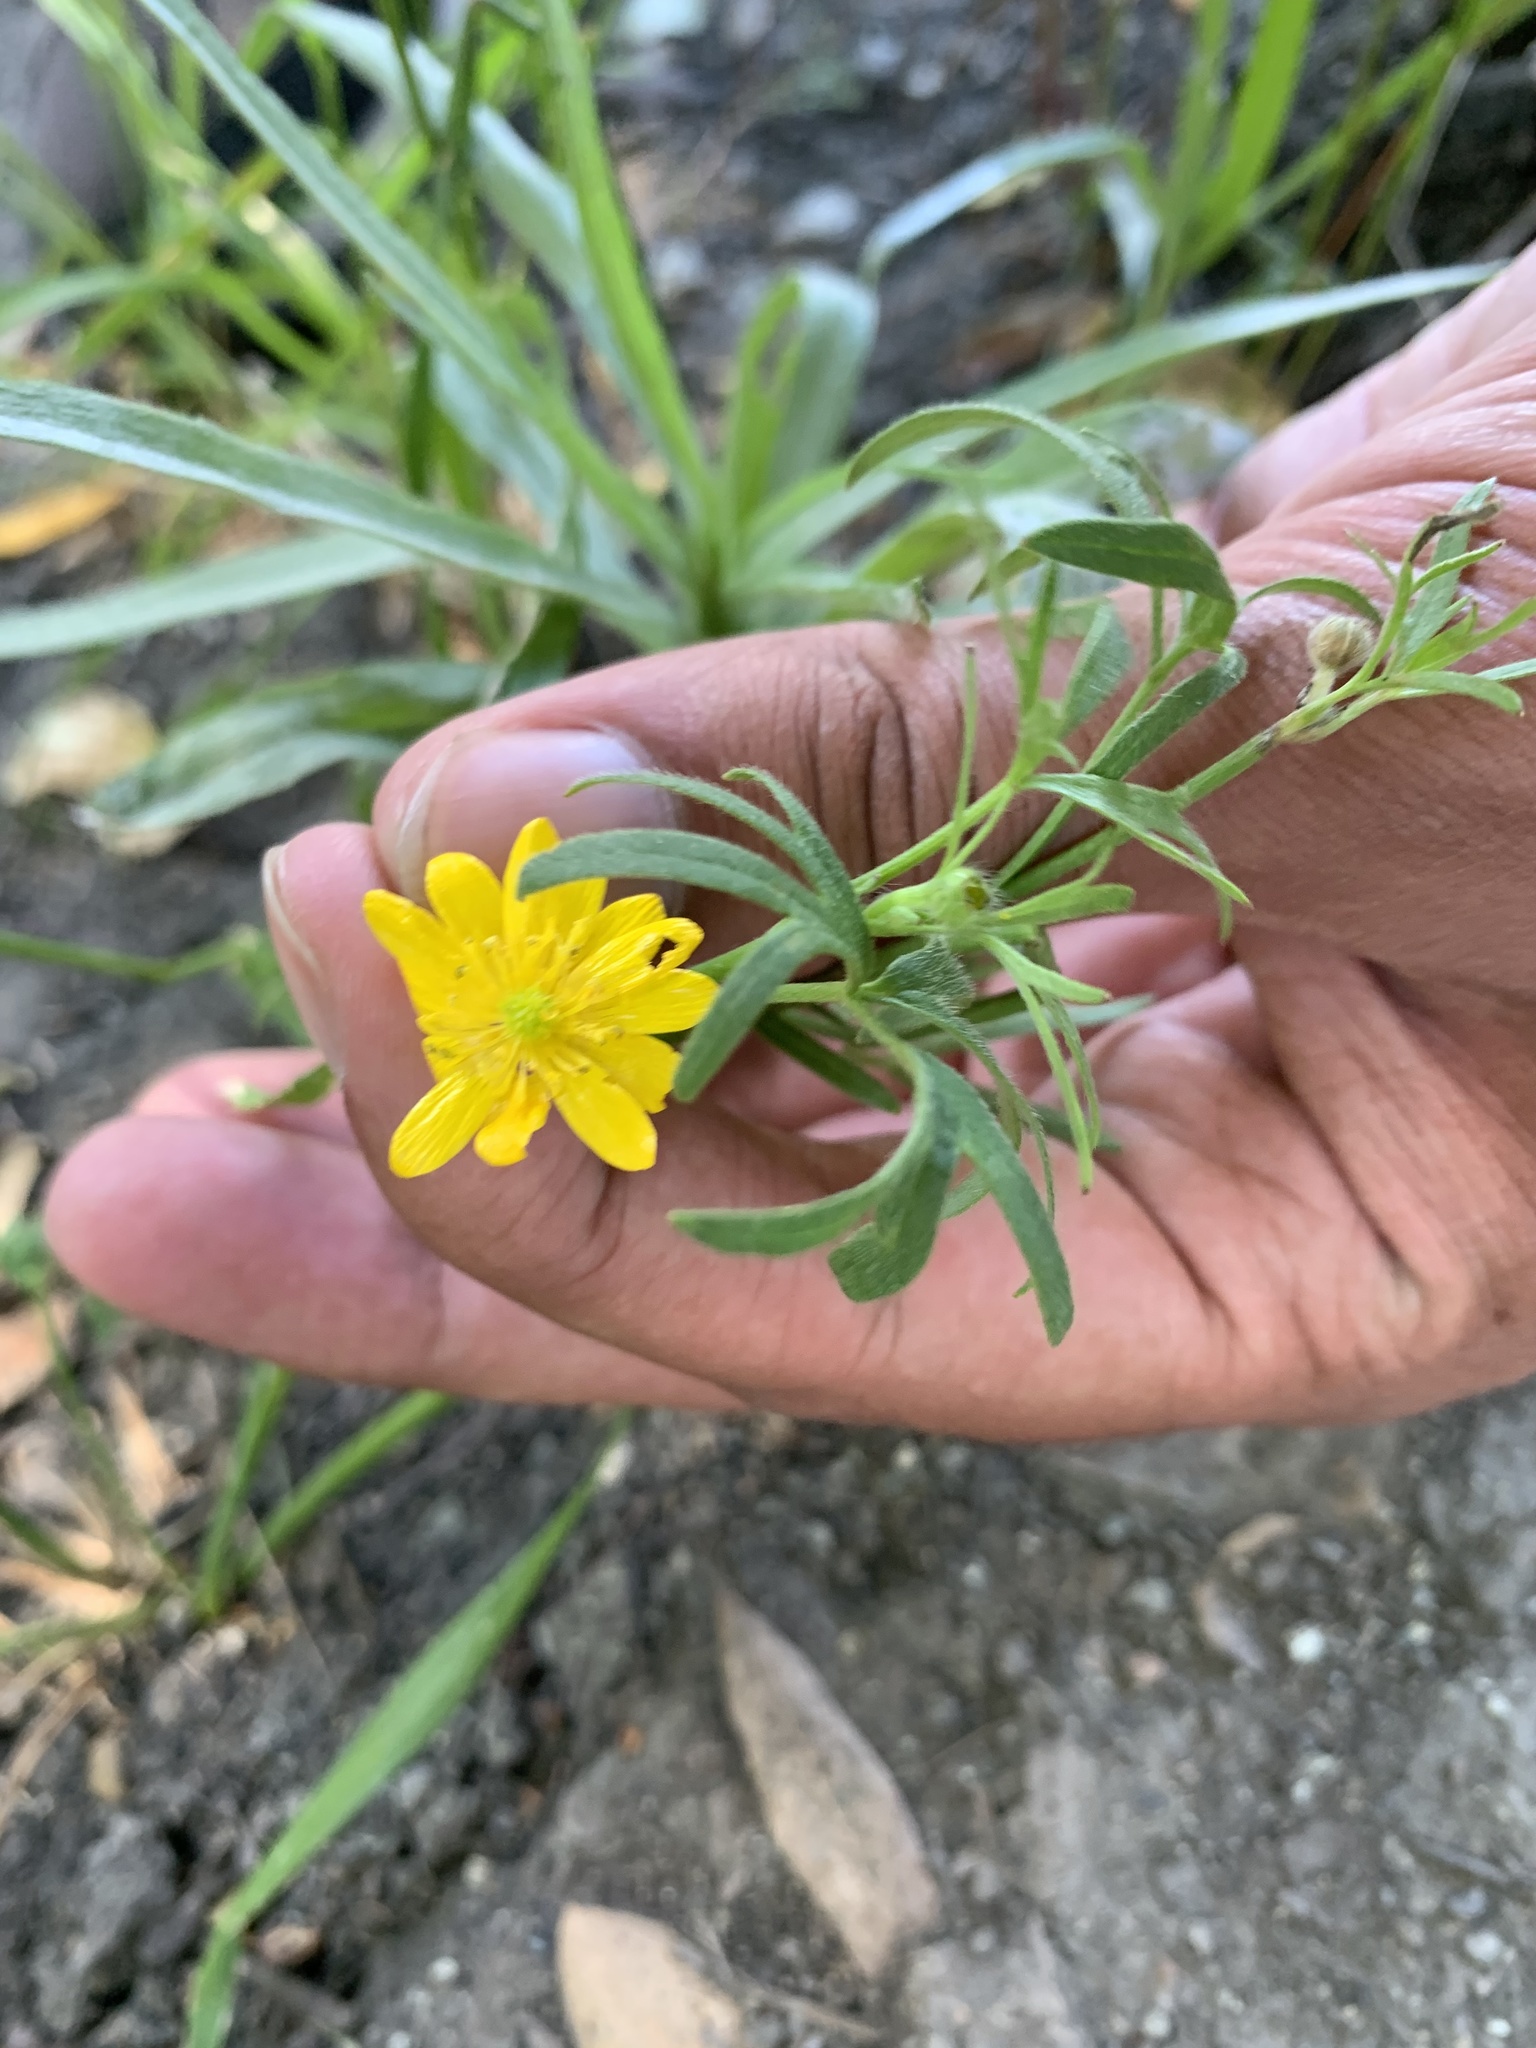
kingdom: Plantae
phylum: Tracheophyta
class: Magnoliopsida
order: Ranunculales
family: Ranunculaceae
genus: Ranunculus
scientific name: Ranunculus californicus
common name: California buttercup
